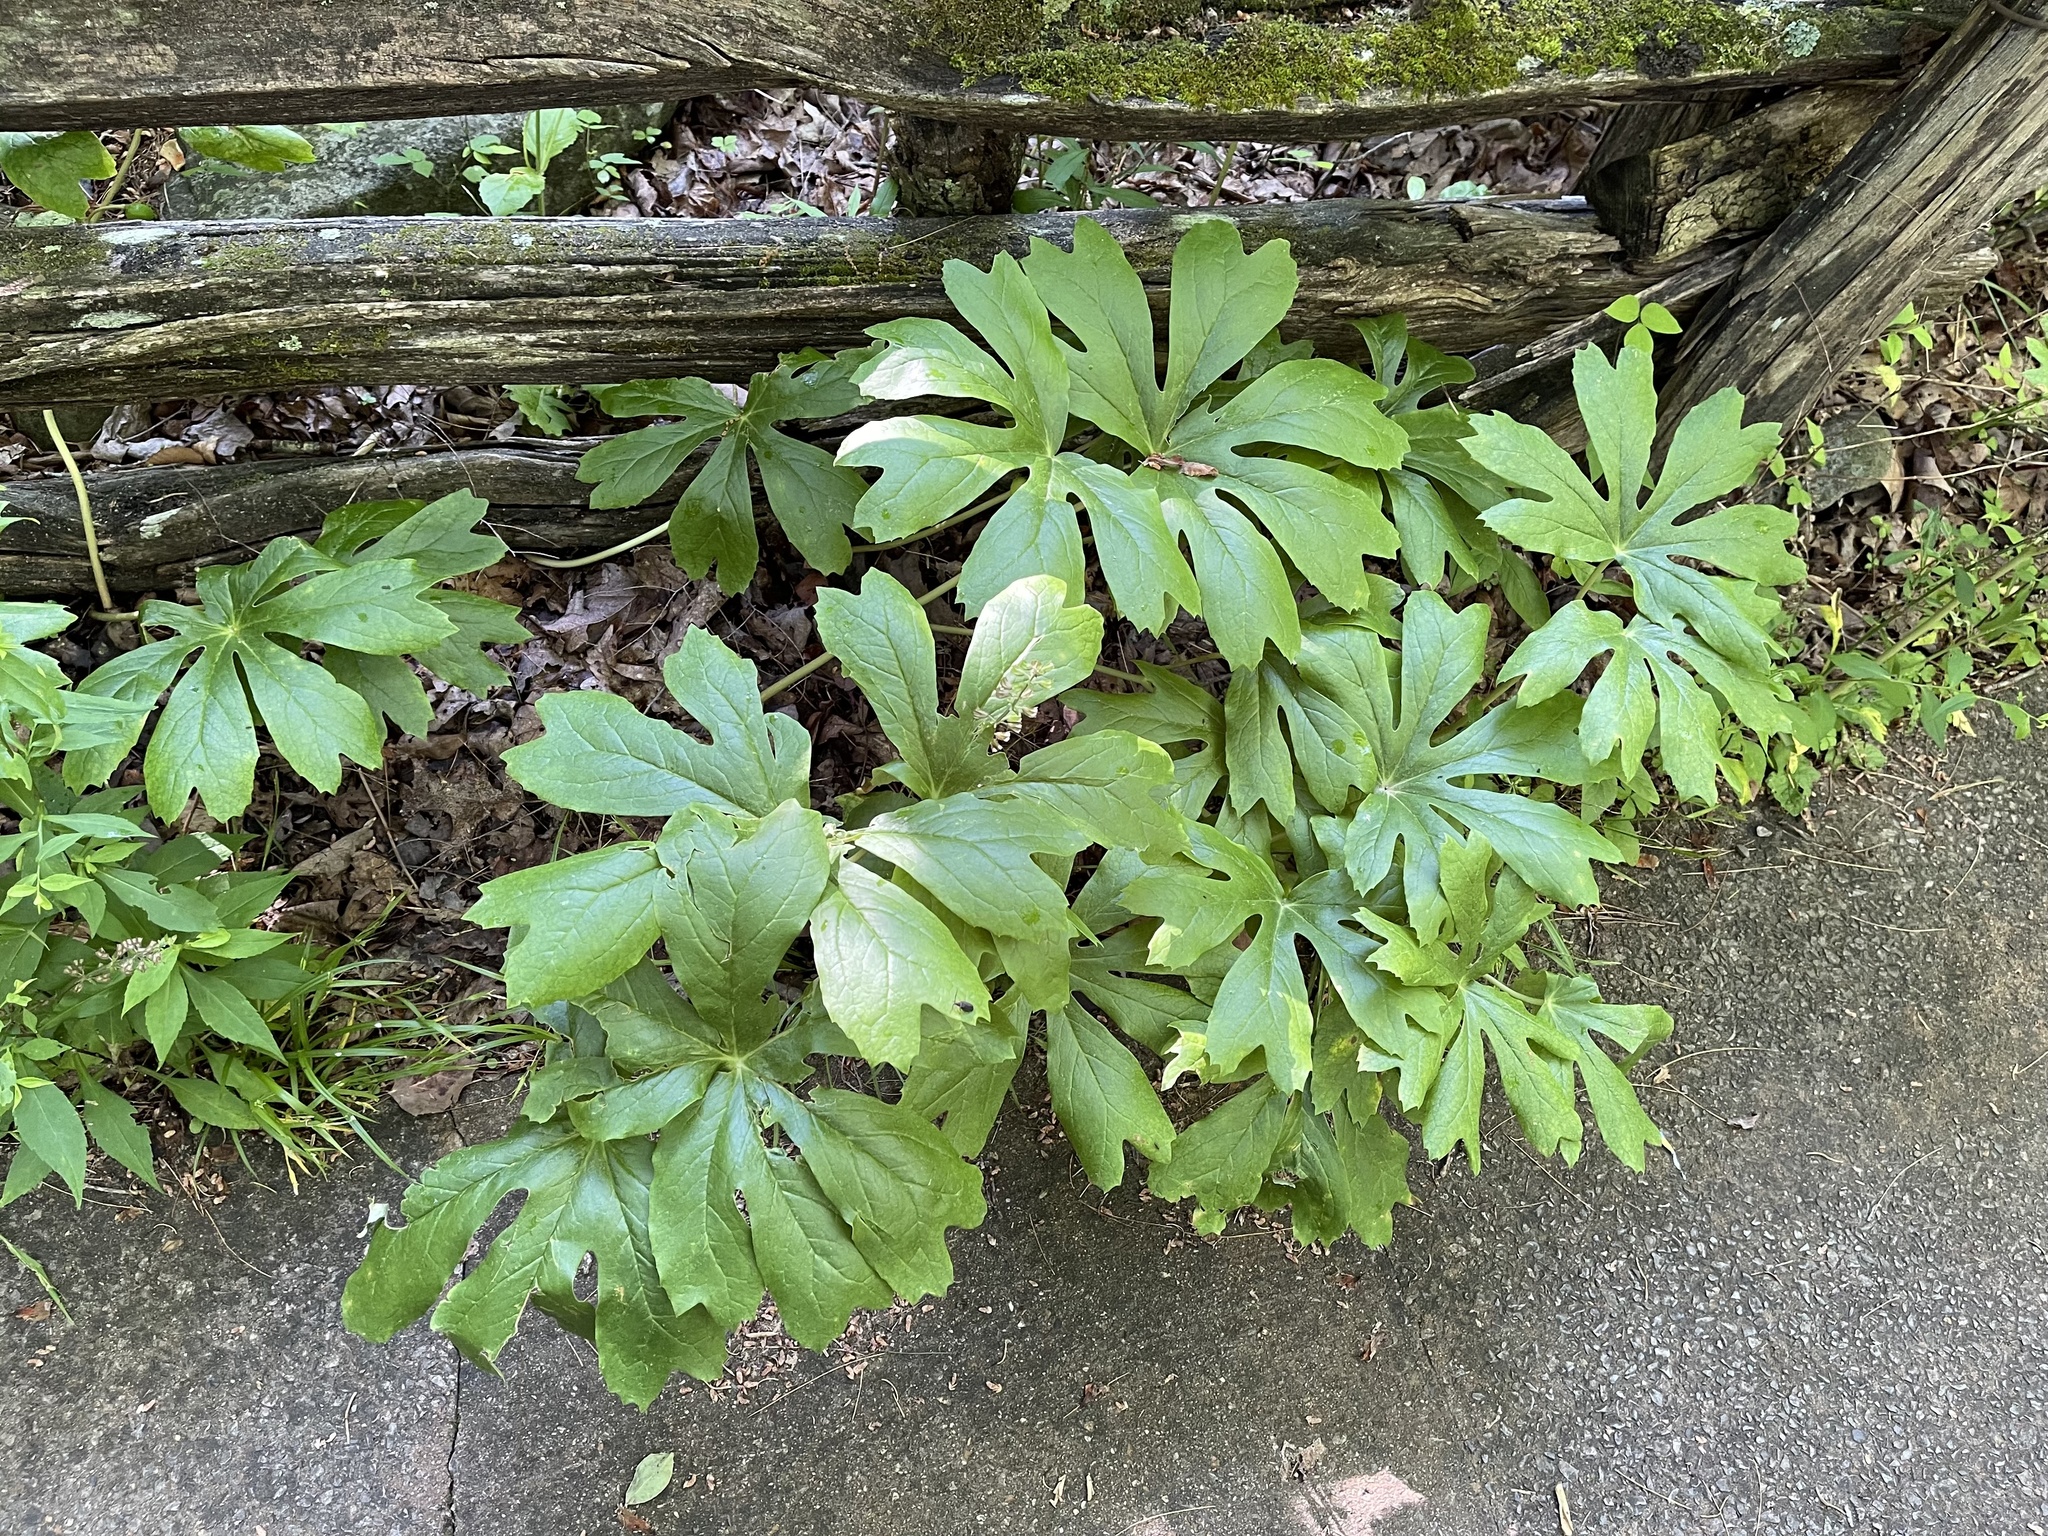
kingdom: Plantae
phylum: Tracheophyta
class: Magnoliopsida
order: Ranunculales
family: Berberidaceae
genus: Podophyllum
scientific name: Podophyllum peltatum
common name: Wild mandrake
